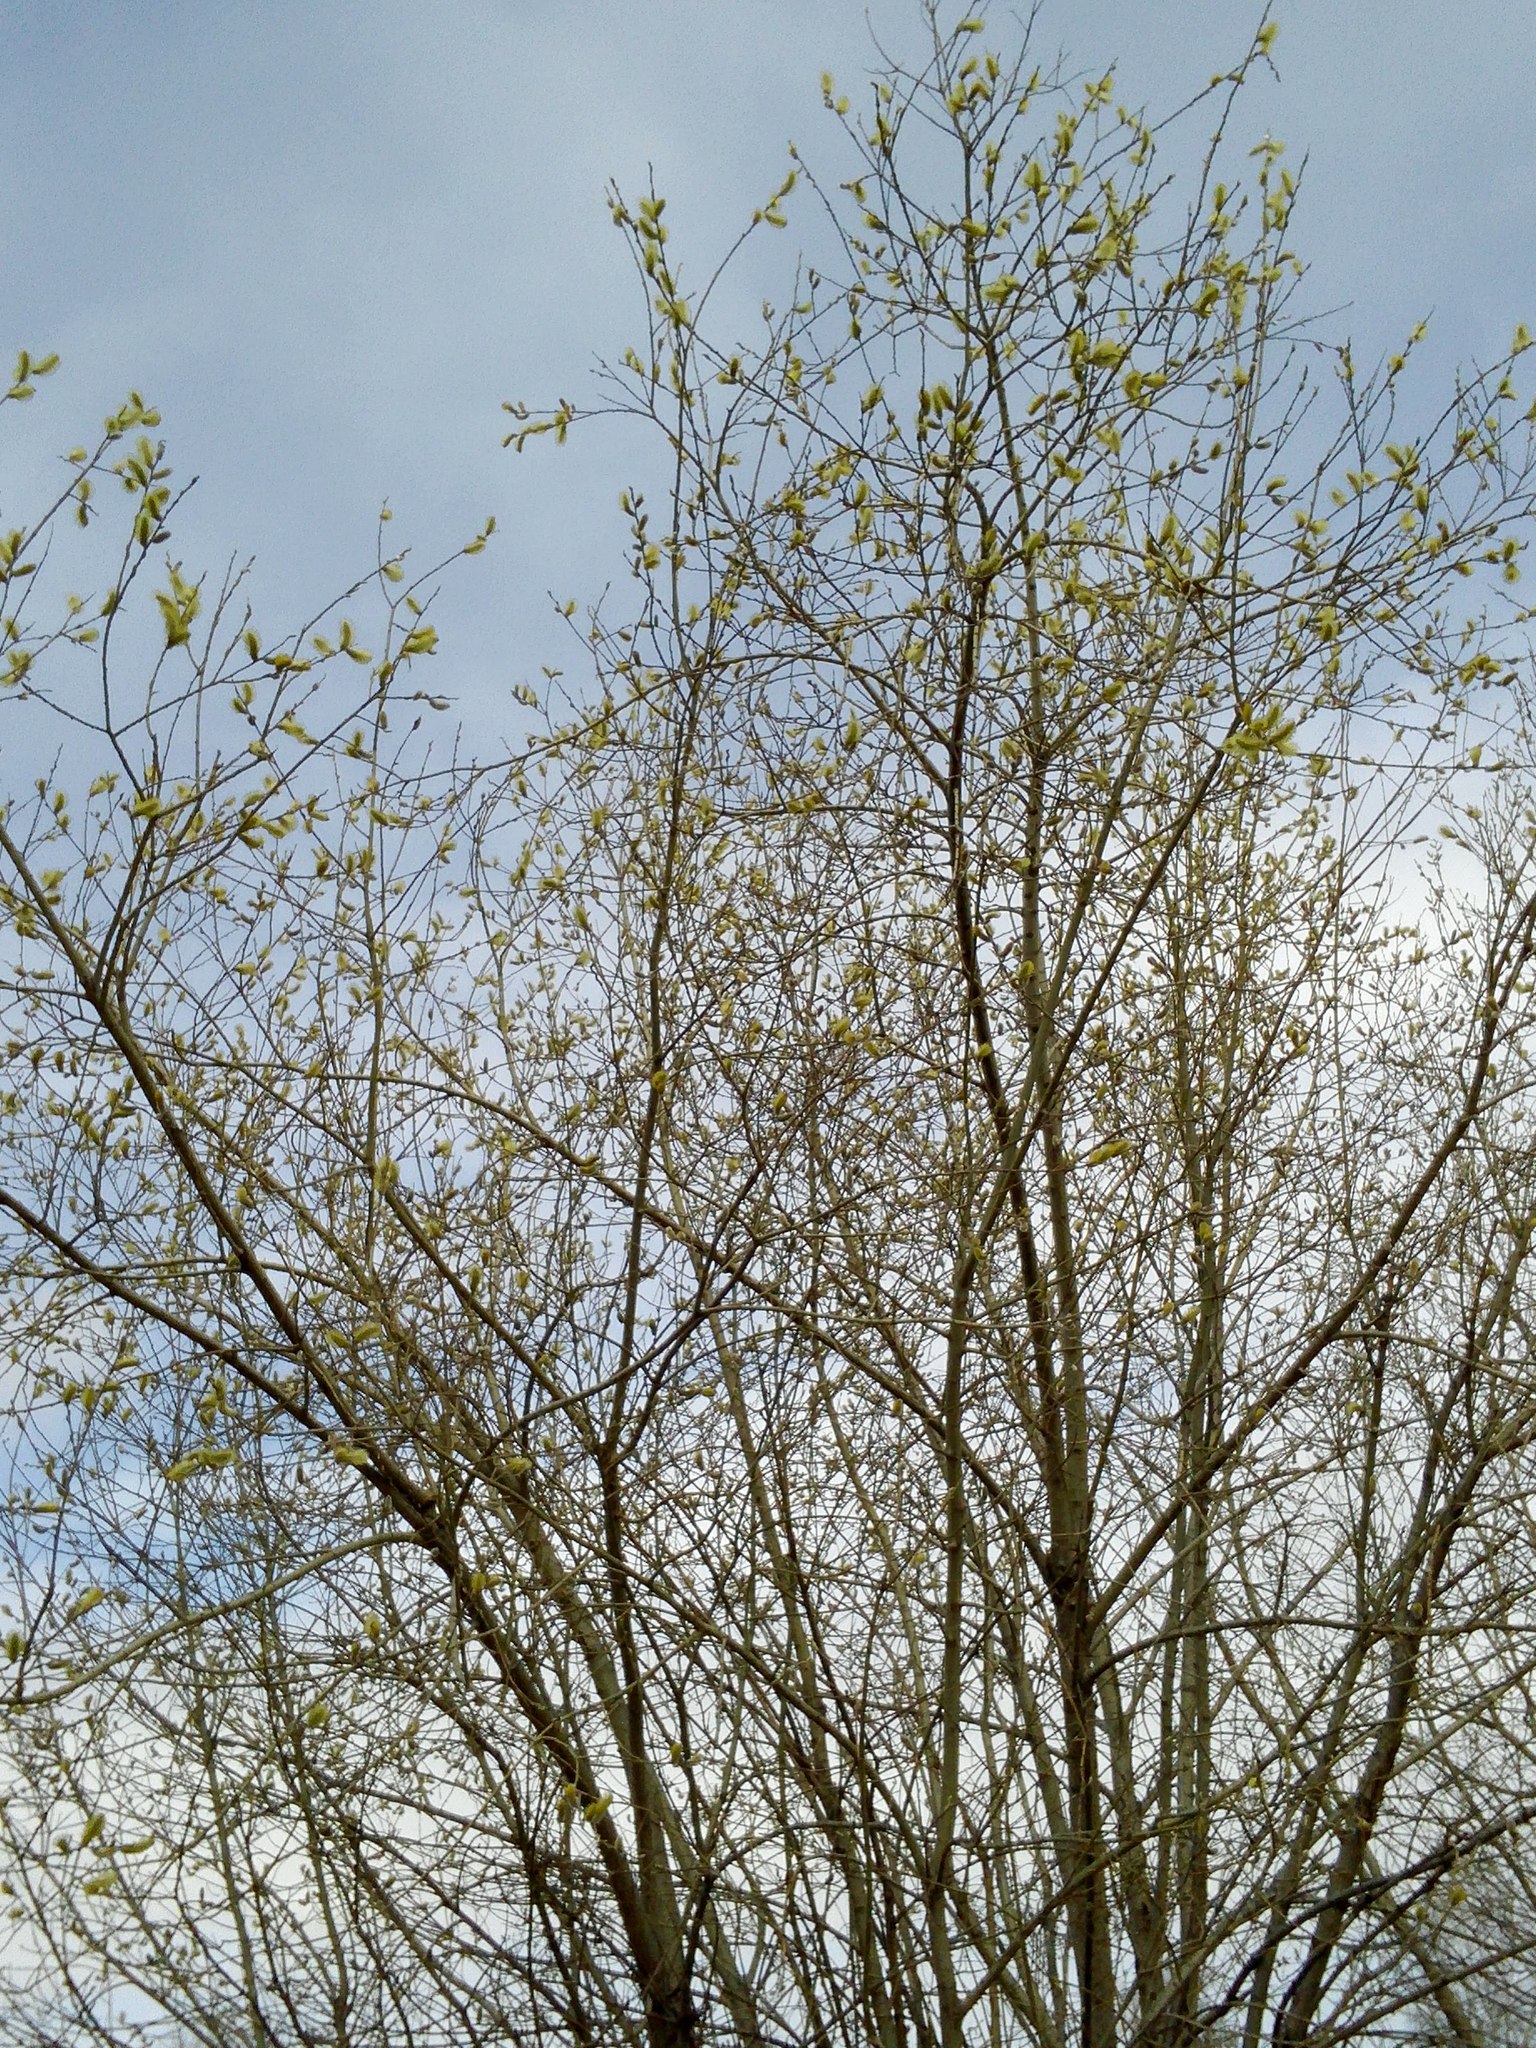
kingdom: Plantae
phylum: Tracheophyta
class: Magnoliopsida
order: Malpighiales
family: Salicaceae
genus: Salix
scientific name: Salix caprea
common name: Goat willow
